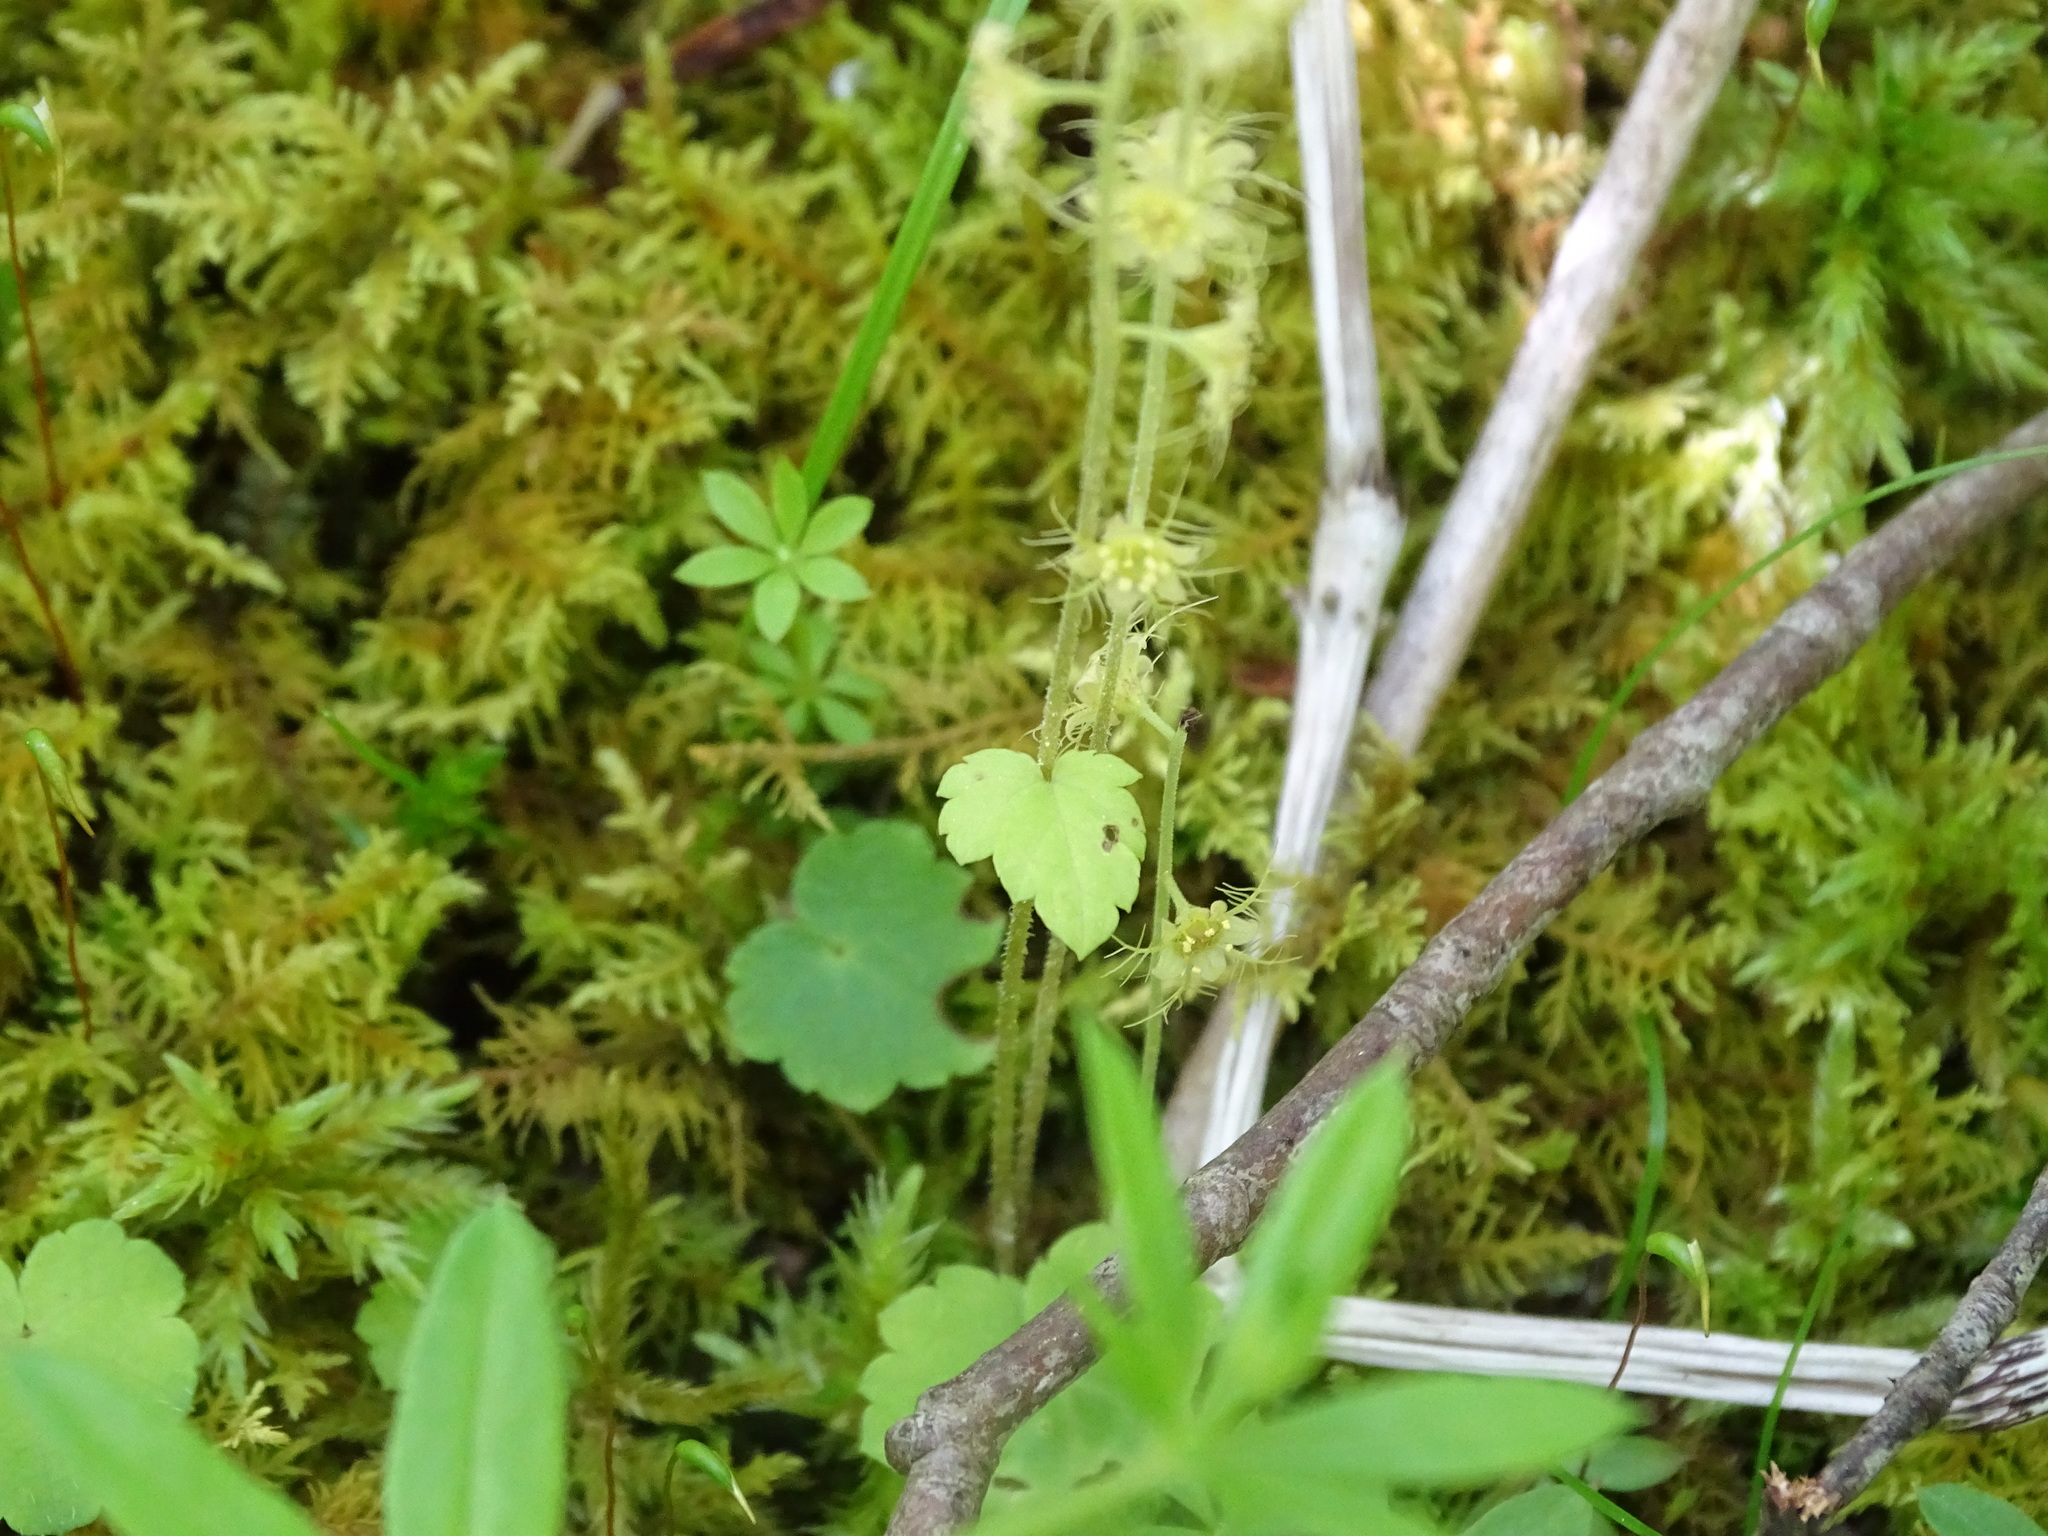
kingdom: Plantae
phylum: Tracheophyta
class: Magnoliopsida
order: Saxifragales
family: Saxifragaceae
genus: Mitella
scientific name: Mitella nuda
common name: Bare-stemmed bishop's-cap
